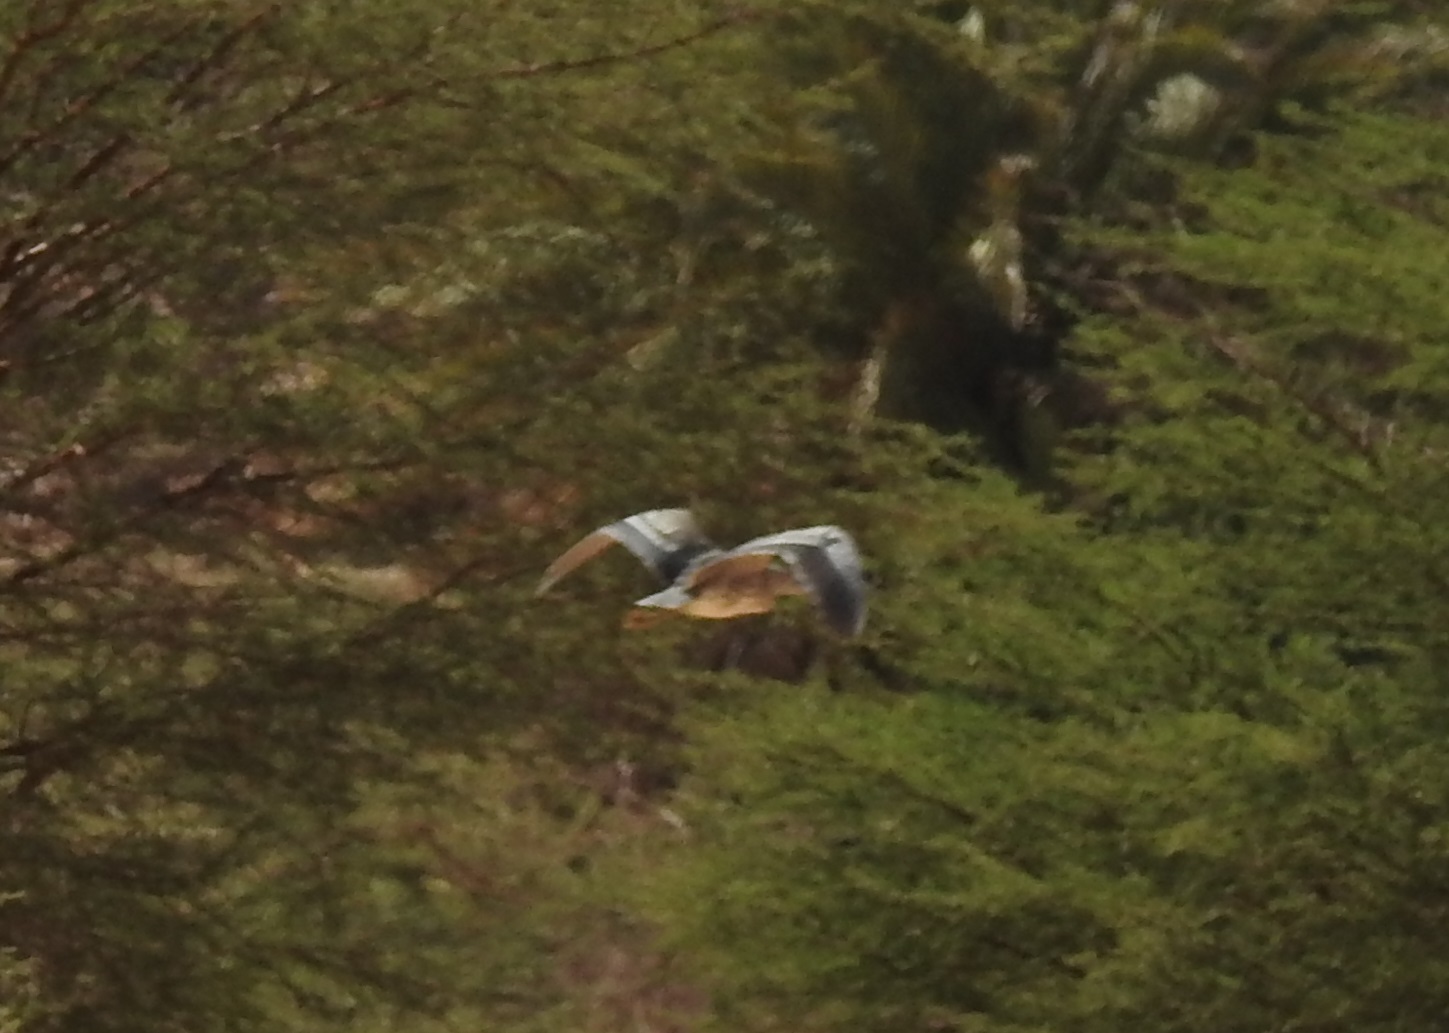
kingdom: Animalia
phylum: Chordata
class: Aves
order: Pelecaniformes
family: Ardeidae
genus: Ardea
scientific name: Ardea cinerea
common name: Grey heron
